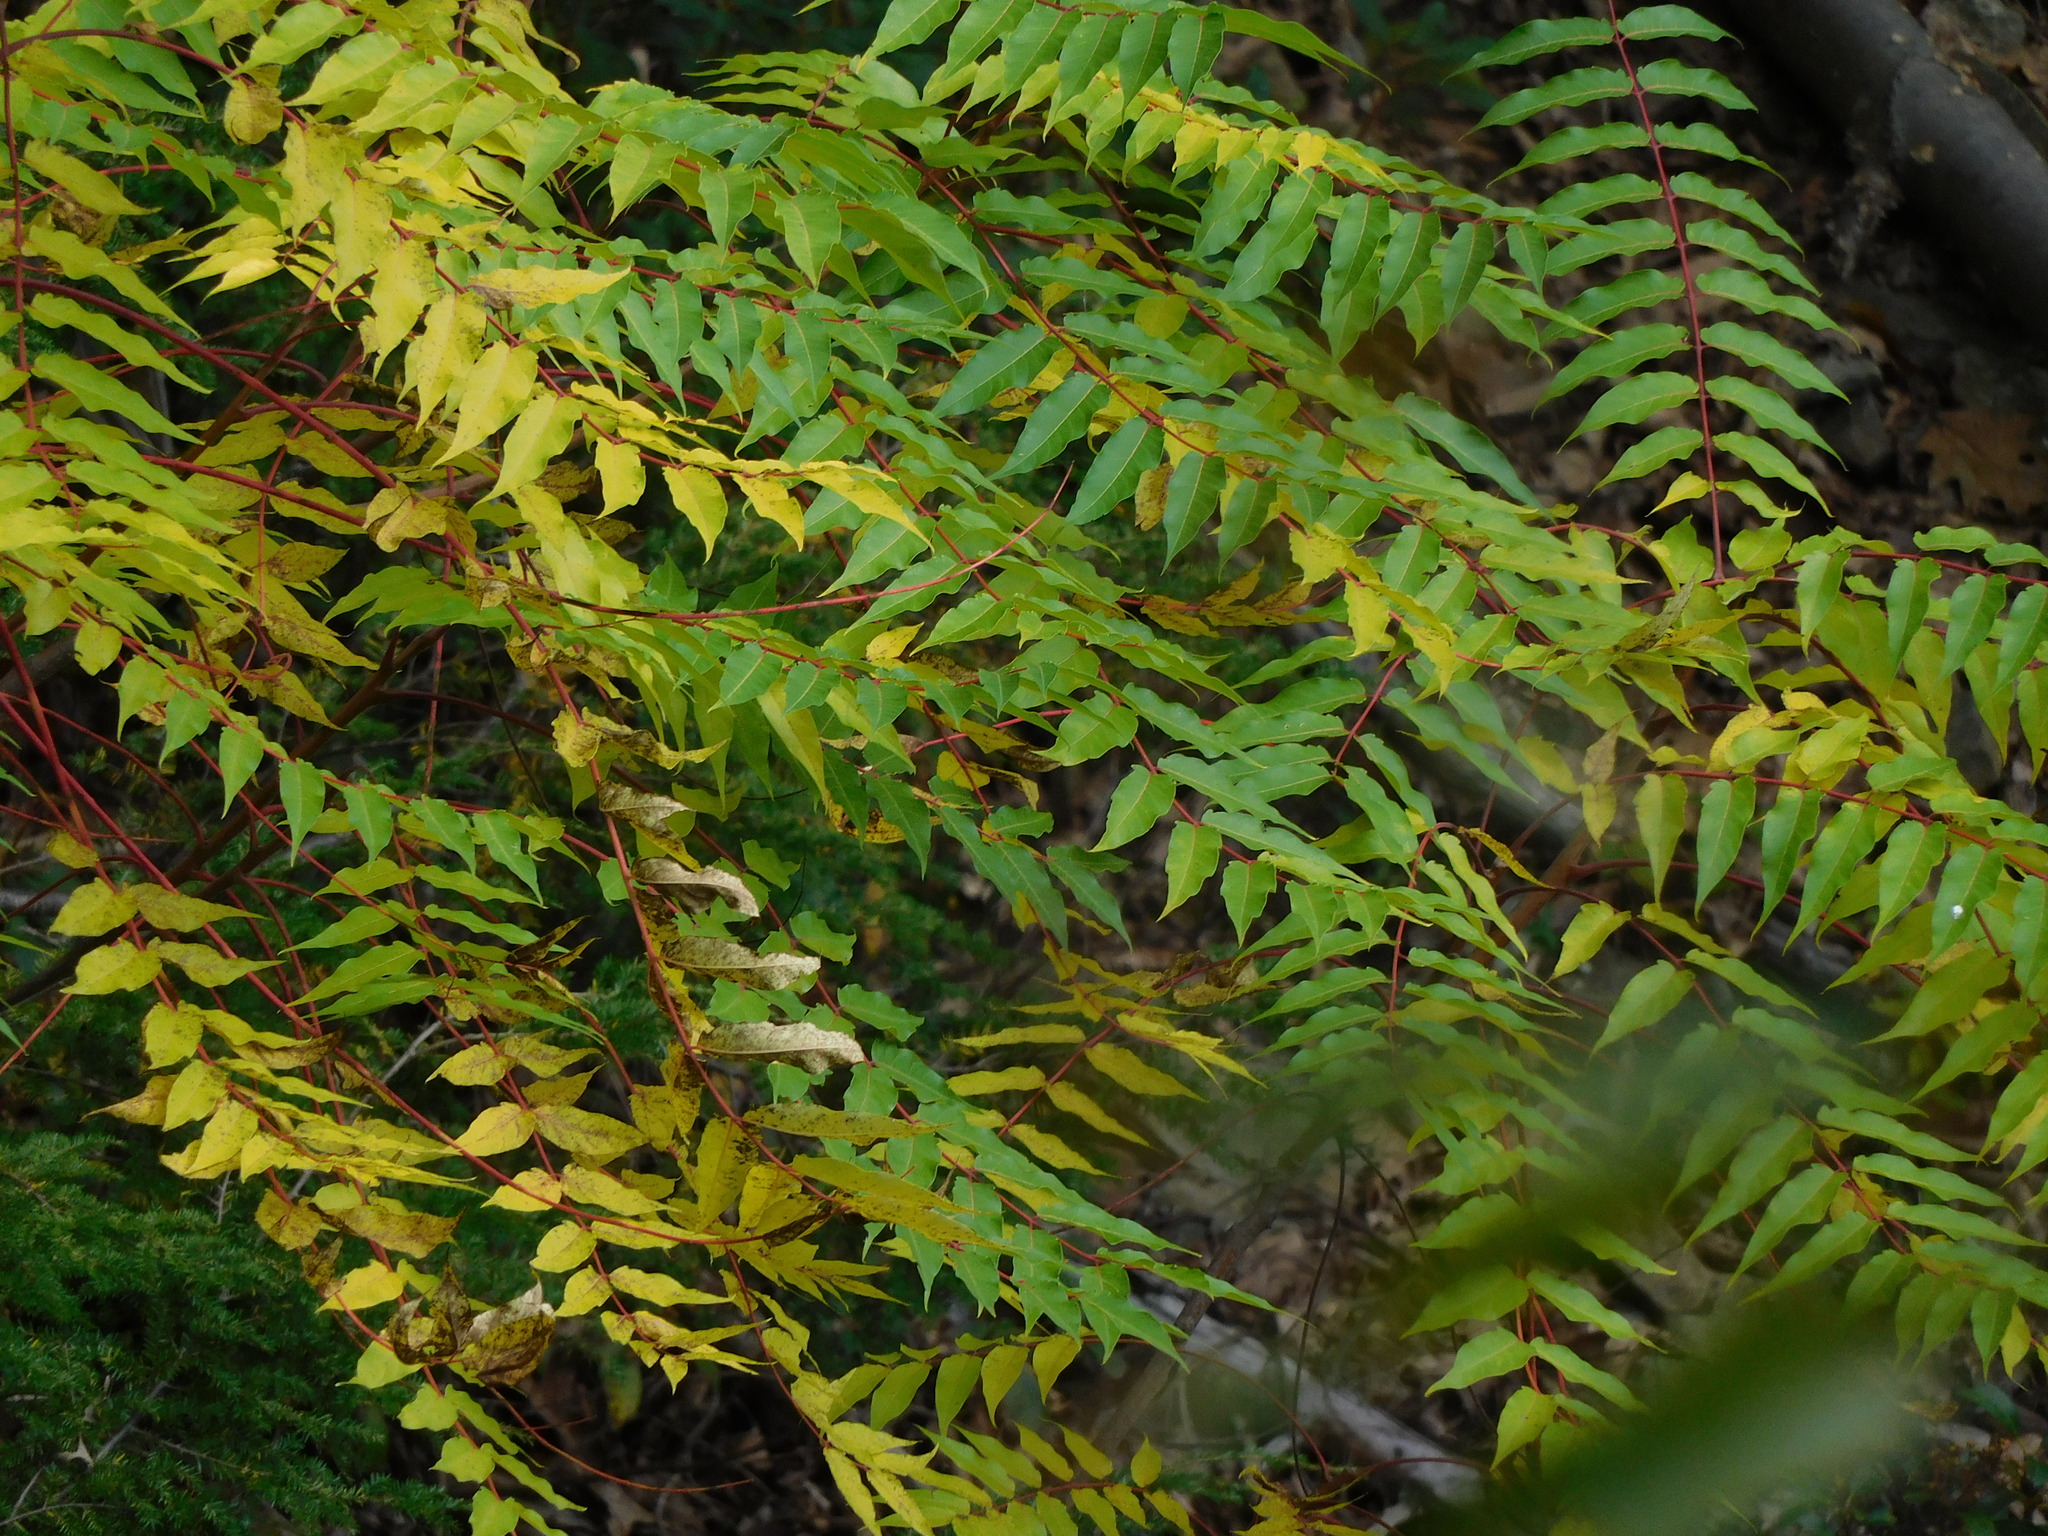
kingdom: Plantae
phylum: Tracheophyta
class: Magnoliopsida
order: Sapindales
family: Simaroubaceae
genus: Ailanthus
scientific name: Ailanthus altissima
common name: Tree-of-heaven
